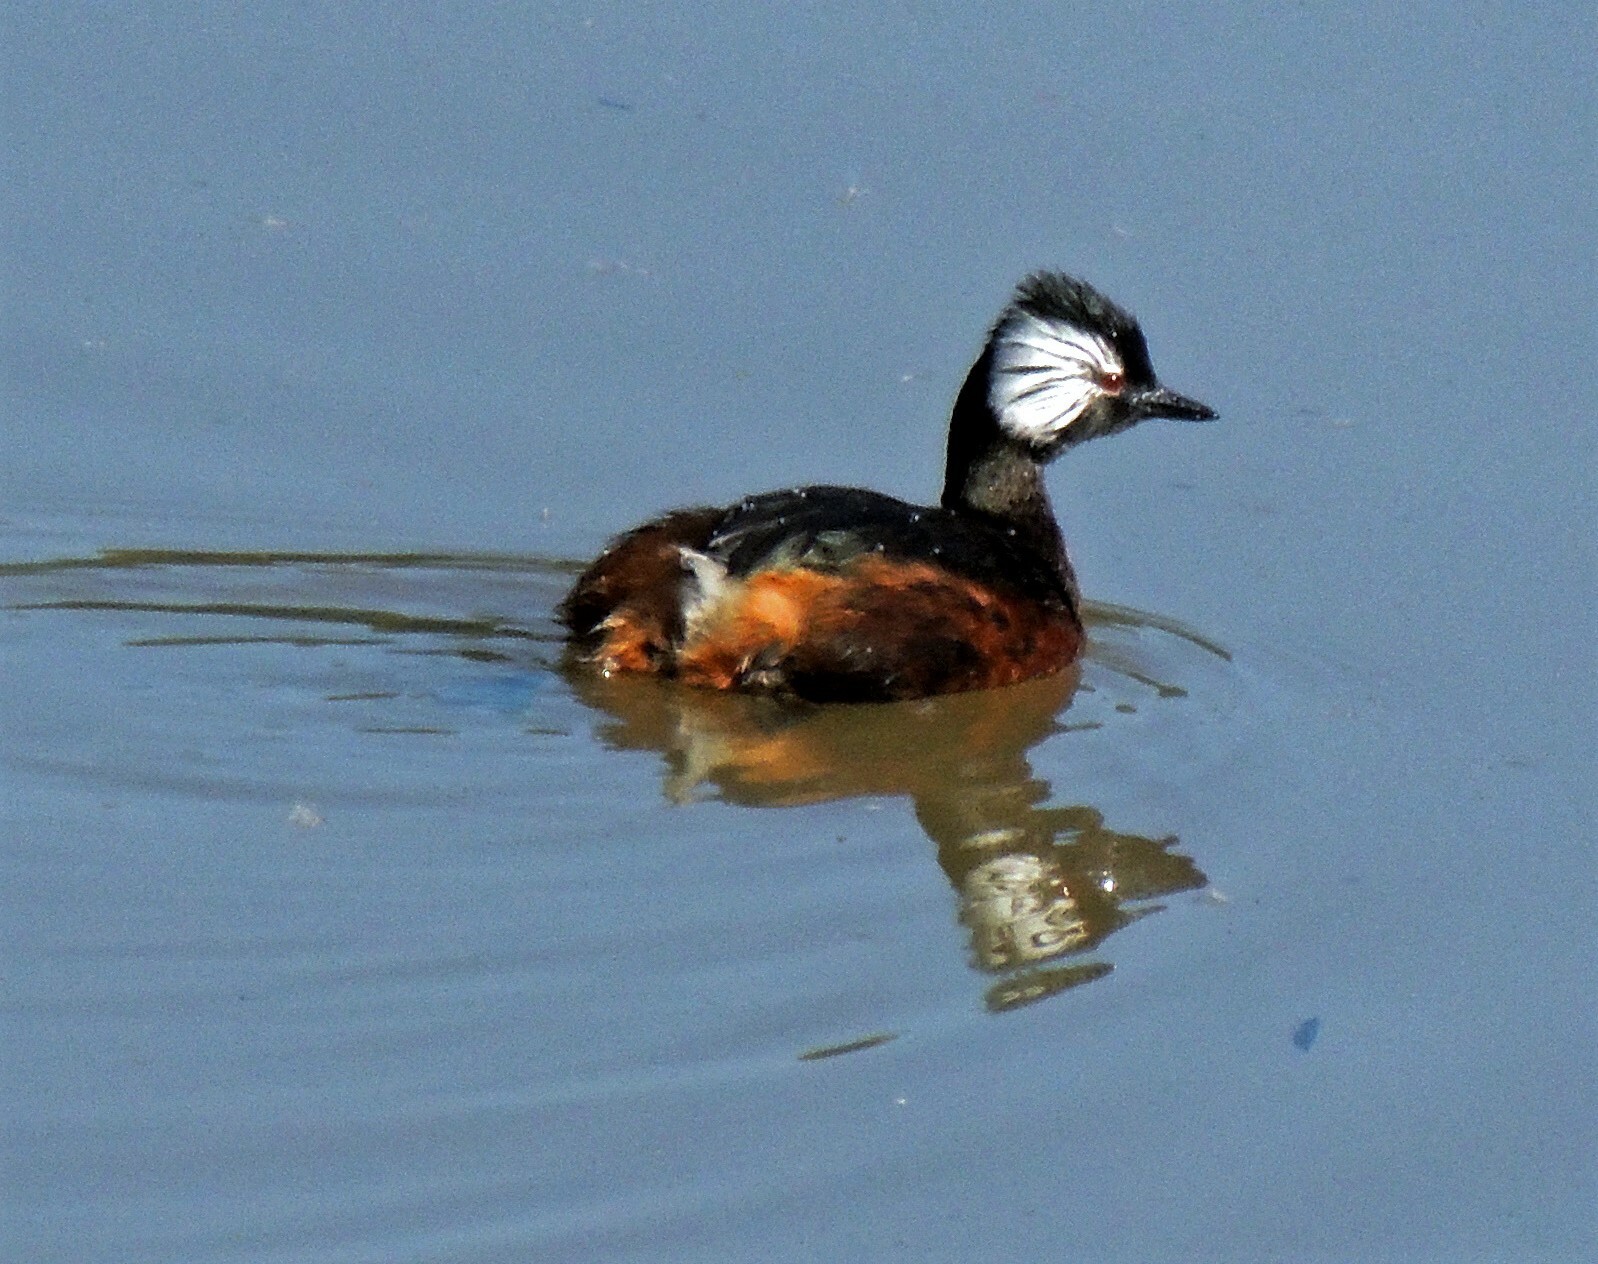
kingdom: Animalia
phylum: Chordata
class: Aves
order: Podicipediformes
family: Podicipedidae
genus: Rollandia
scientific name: Rollandia rolland
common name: White-tufted grebe
